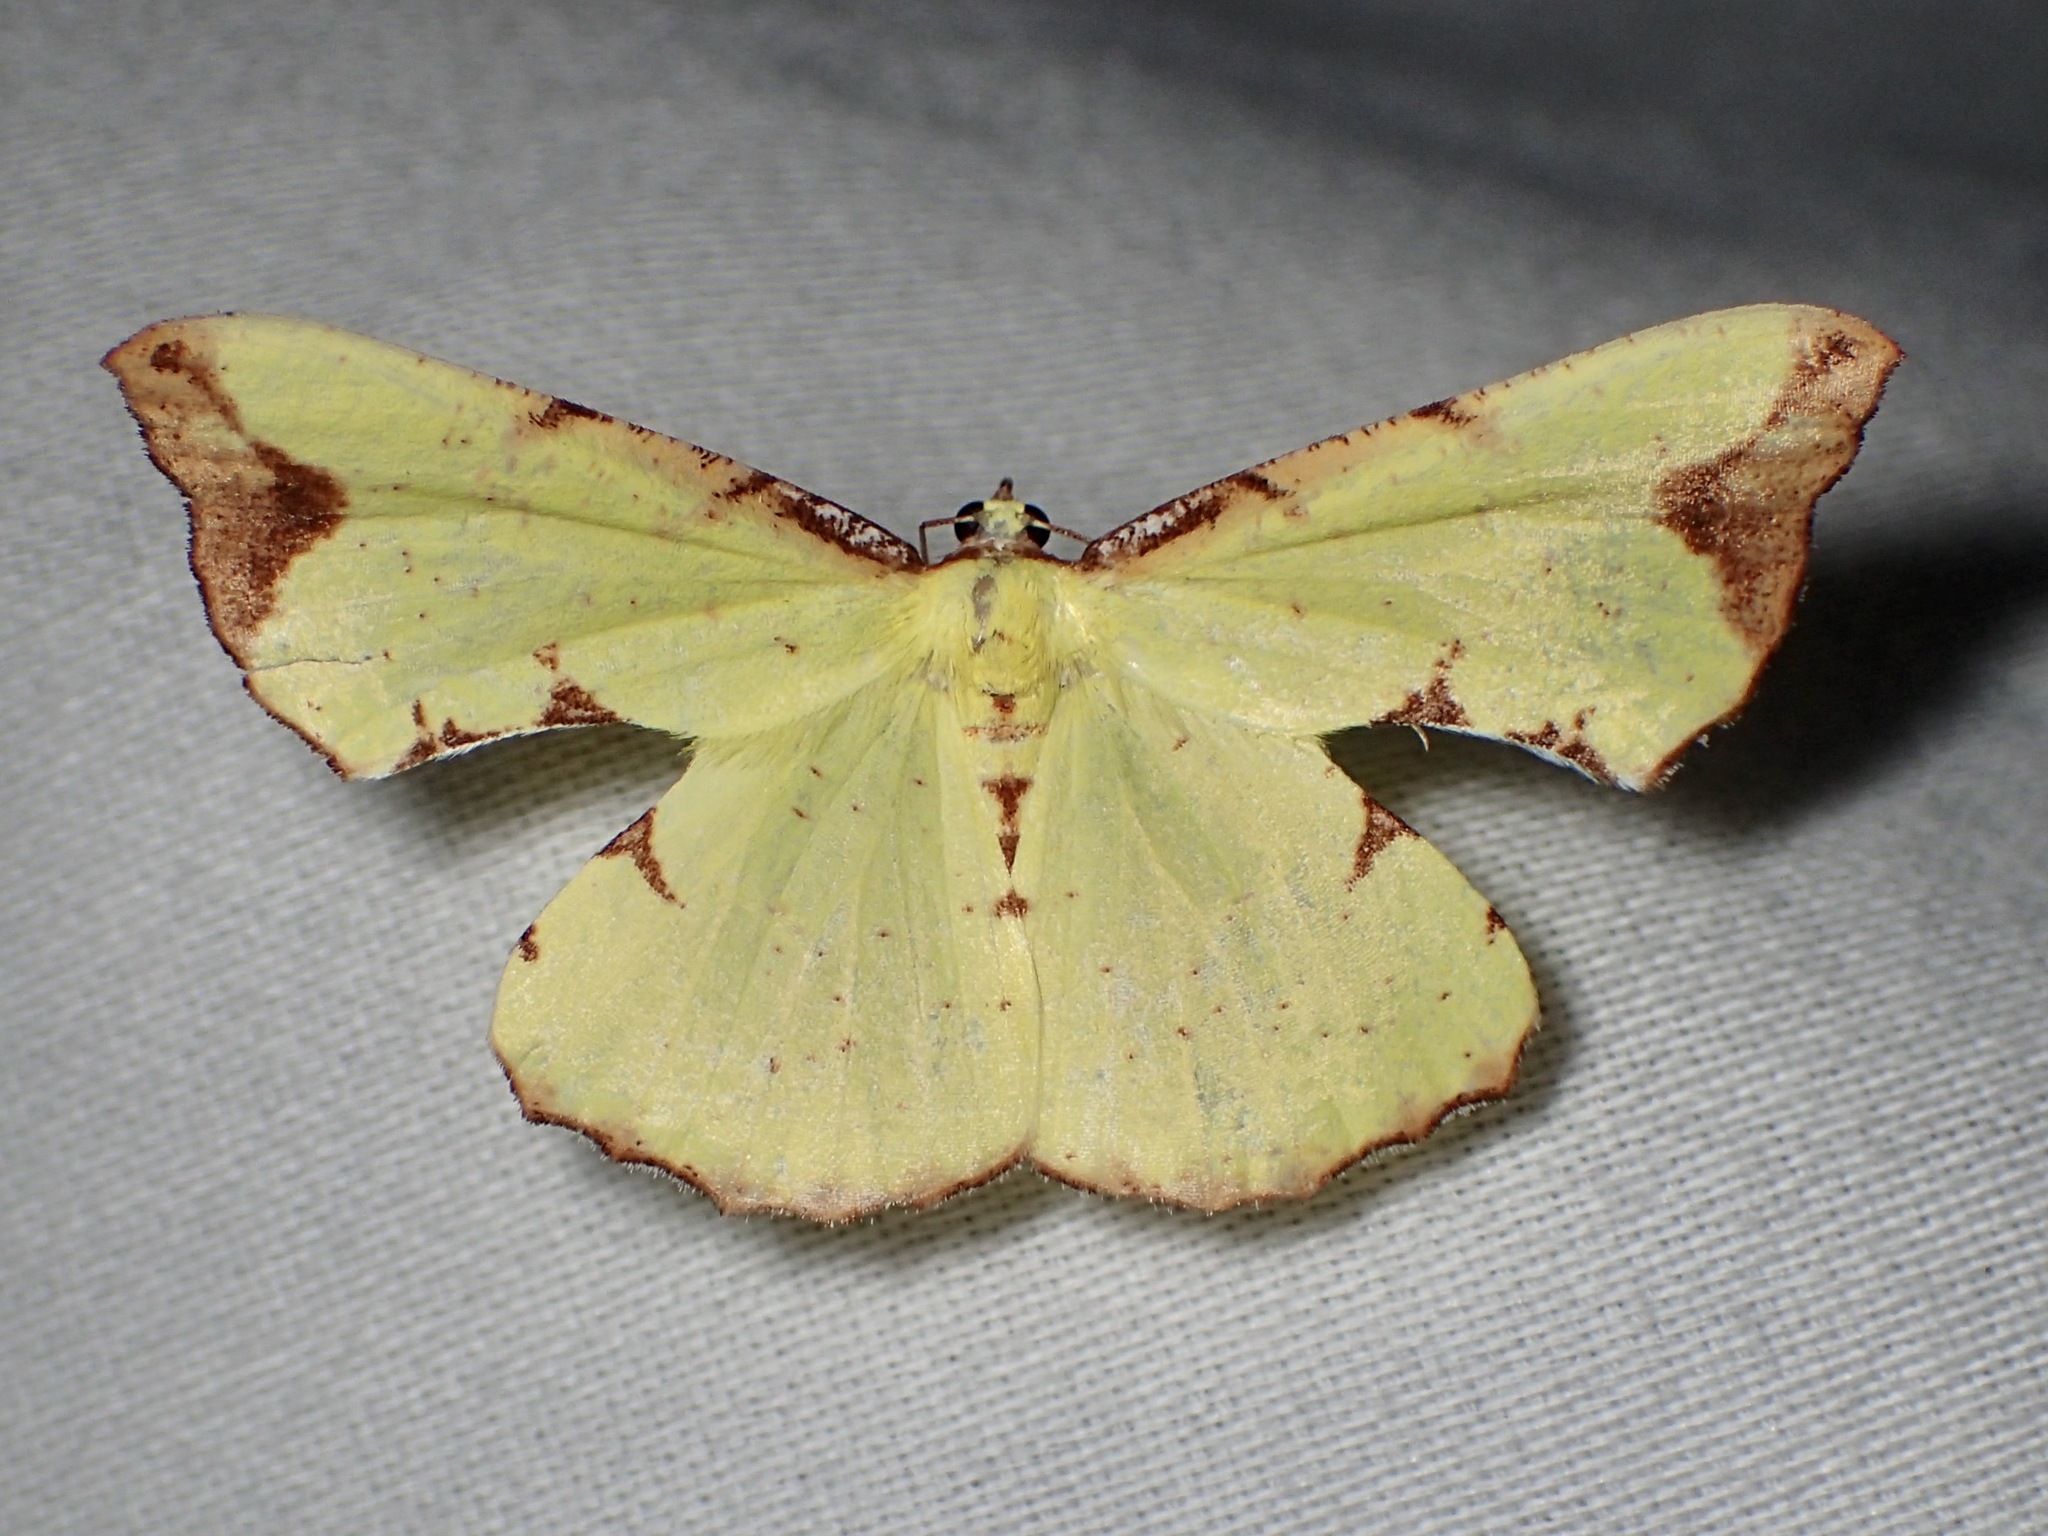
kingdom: Animalia
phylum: Arthropoda
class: Insecta
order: Lepidoptera
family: Geometridae
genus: Corymica
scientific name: Corymica pryeri
